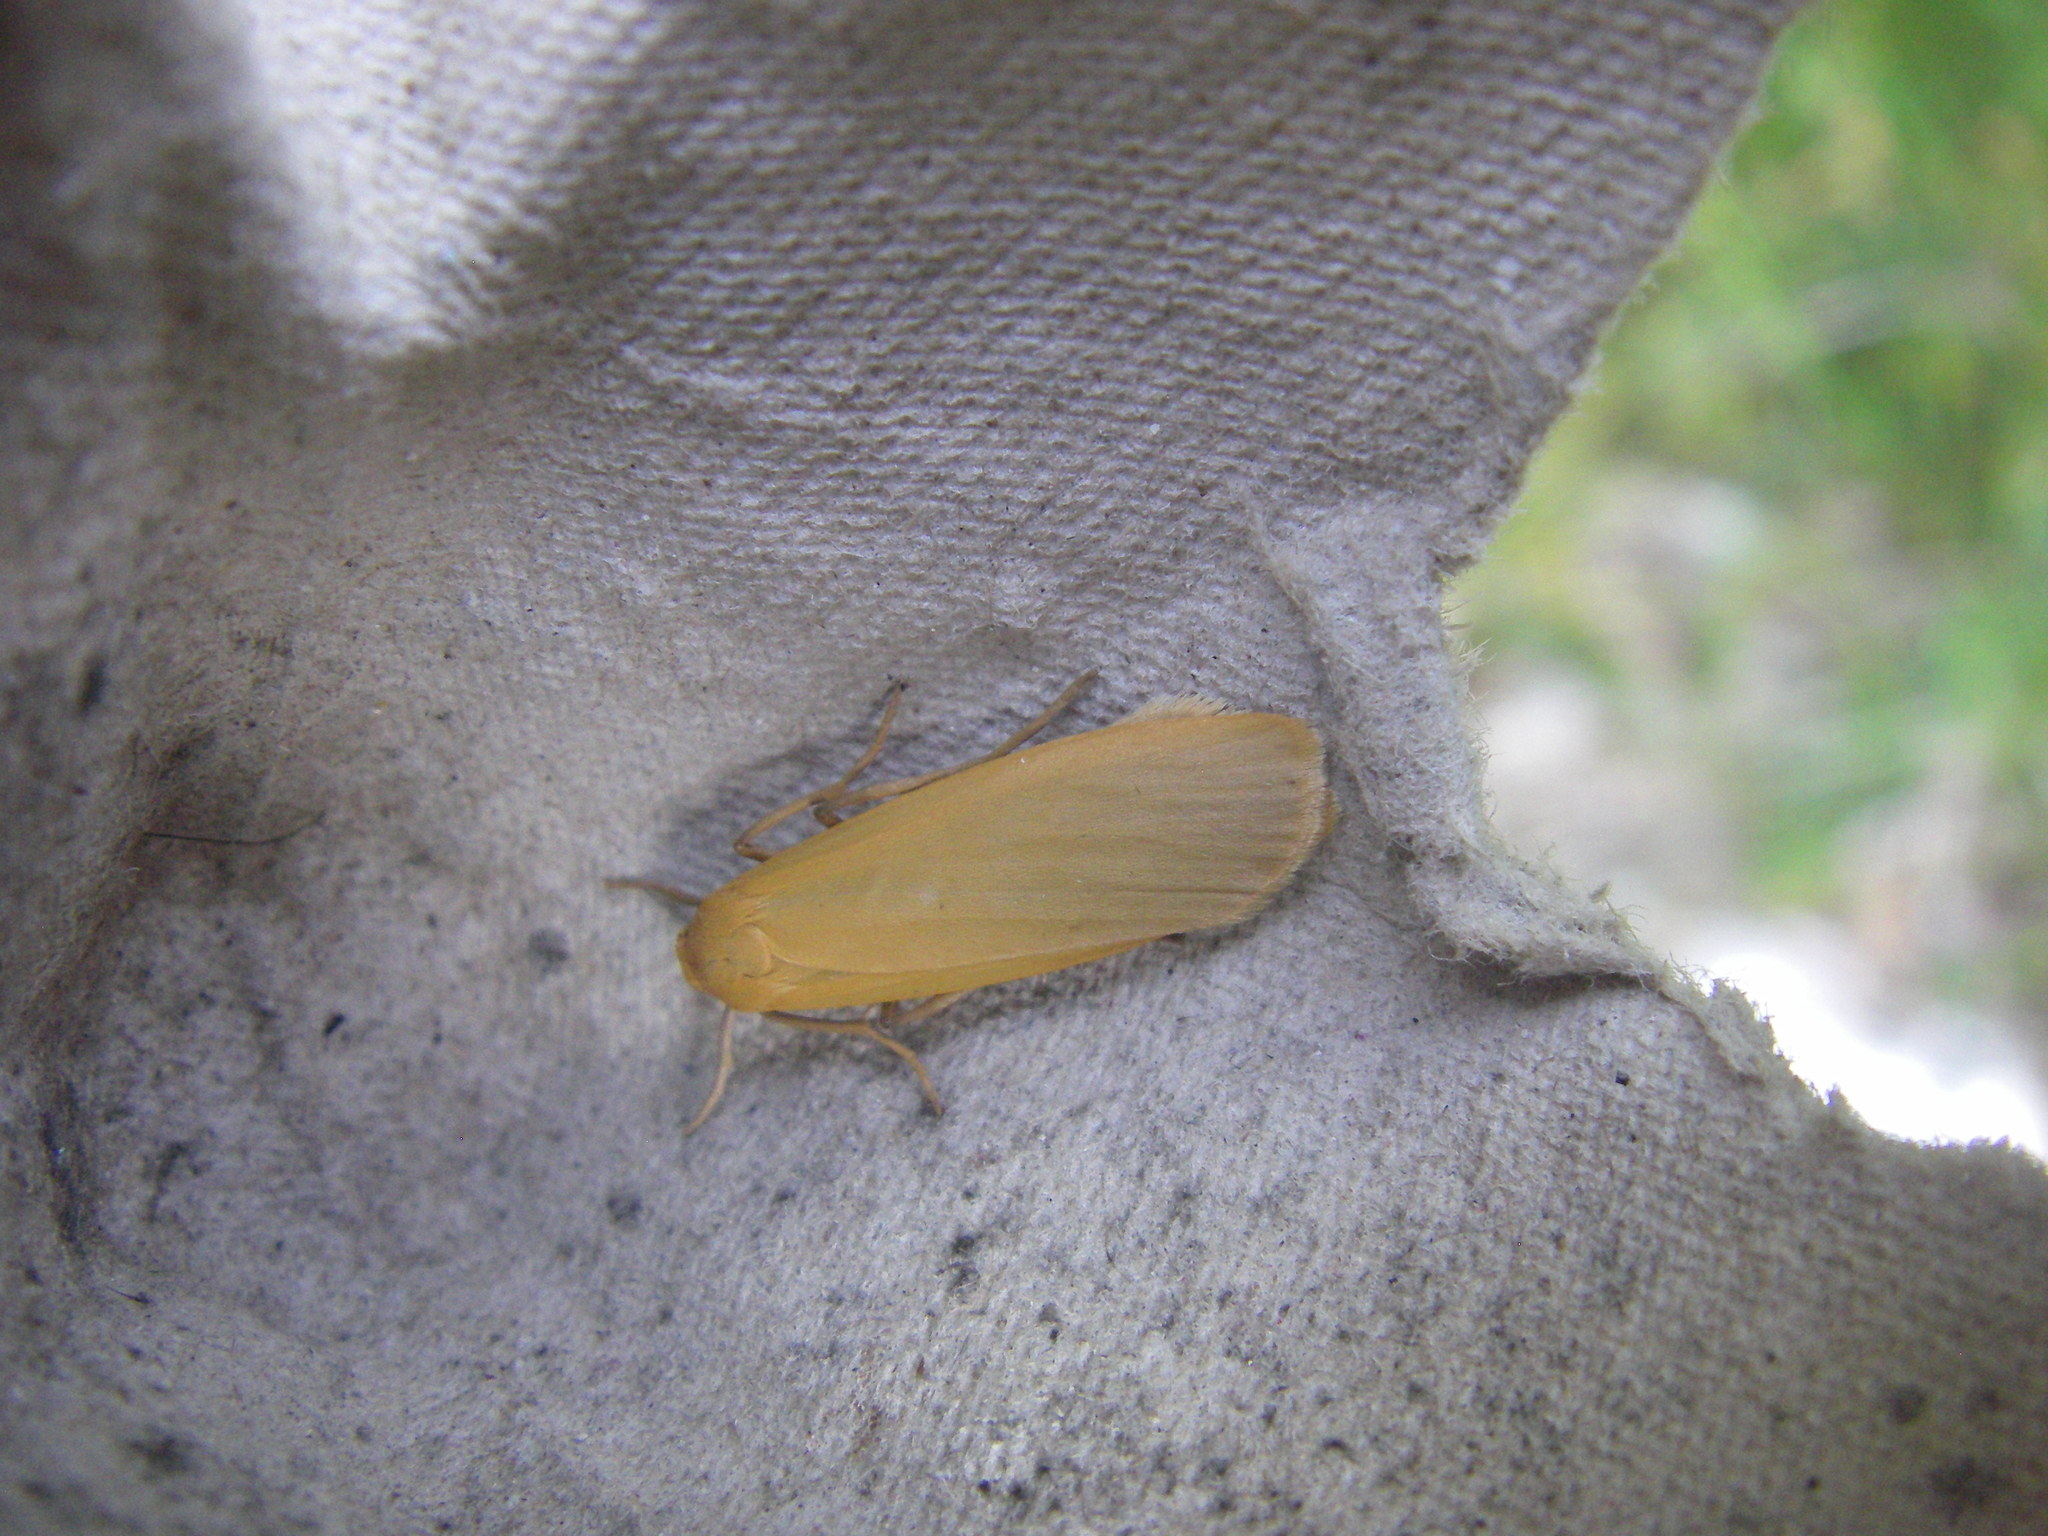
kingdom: Animalia
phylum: Arthropoda
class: Insecta
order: Lepidoptera
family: Erebidae
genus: Wittia
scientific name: Wittia sororcula
